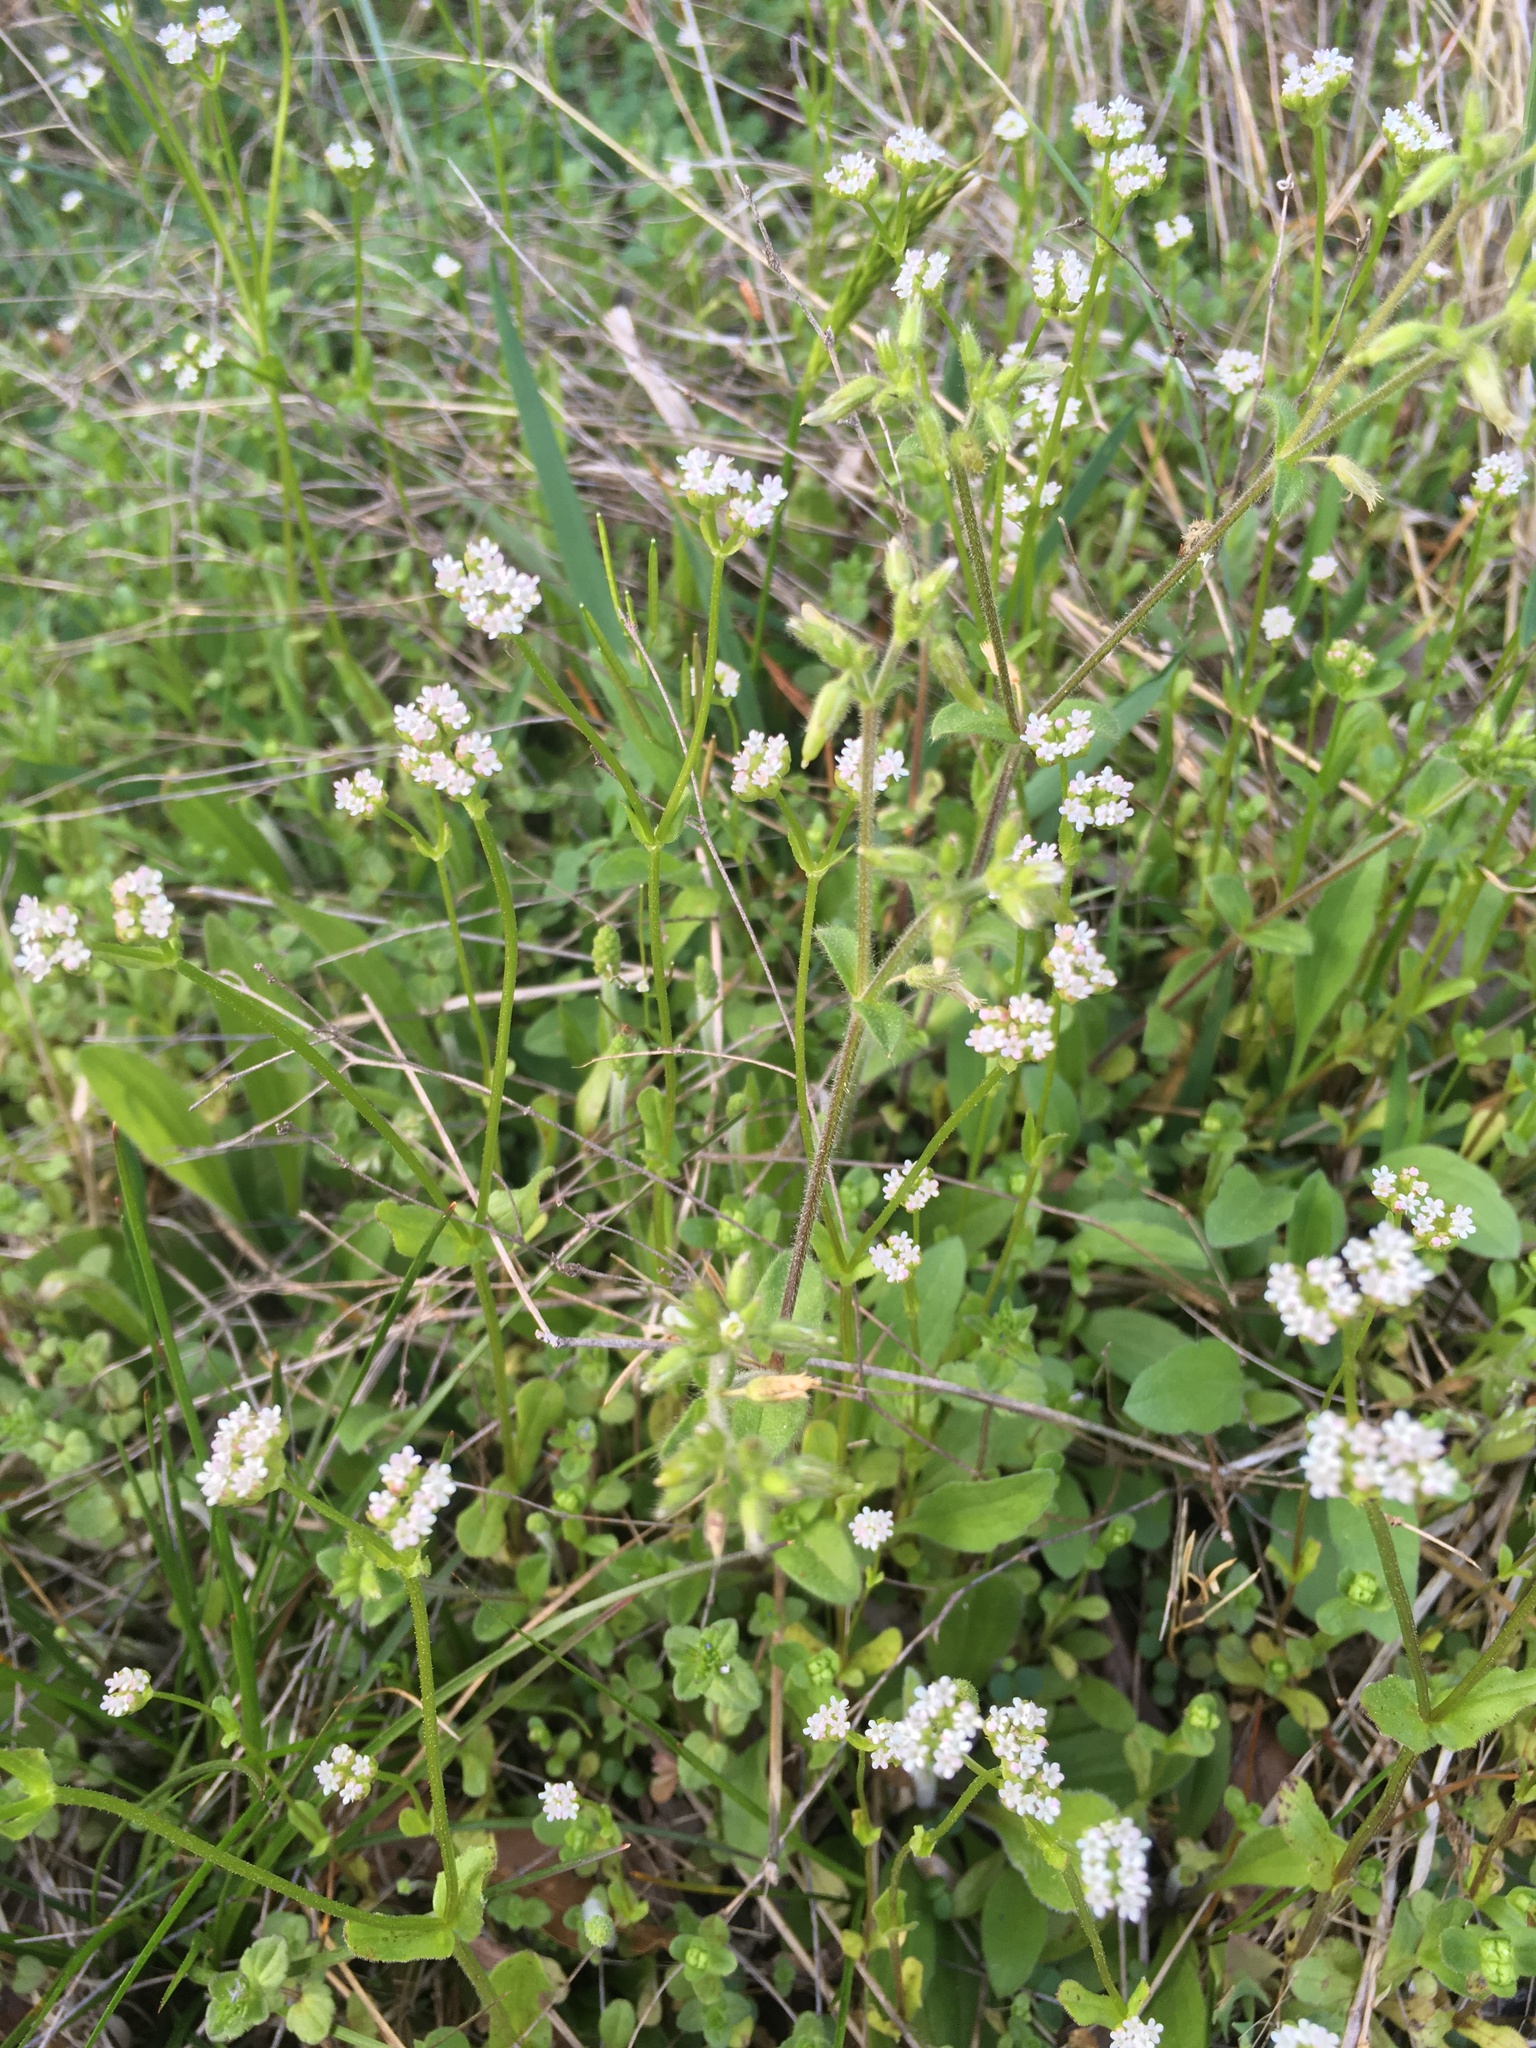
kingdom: Plantae
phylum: Tracheophyta
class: Magnoliopsida
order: Dipsacales
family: Caprifoliaceae
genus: Valerianella
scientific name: Valerianella radiata
